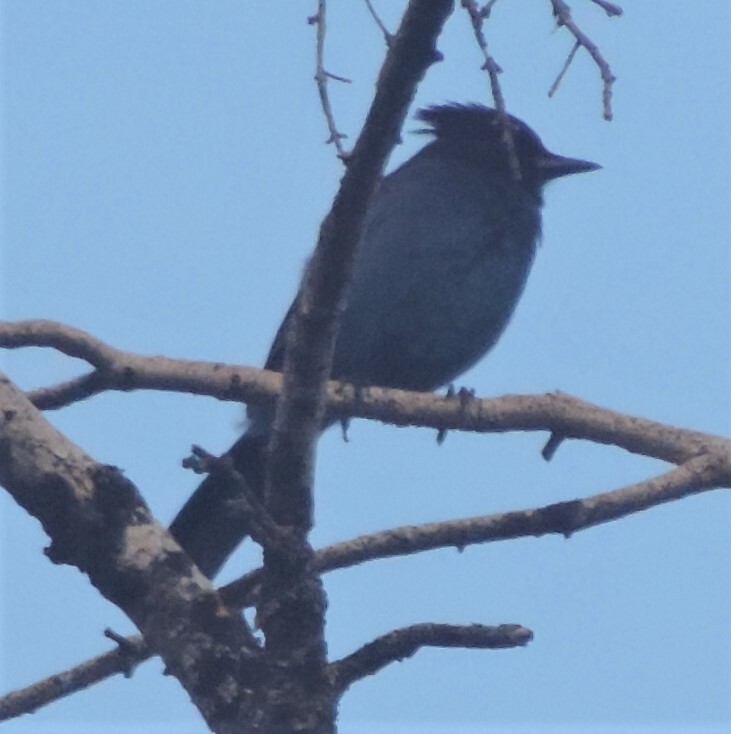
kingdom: Animalia
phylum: Chordata
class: Aves
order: Passeriformes
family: Corvidae
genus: Cyanocitta
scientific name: Cyanocitta stelleri
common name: Steller's jay
